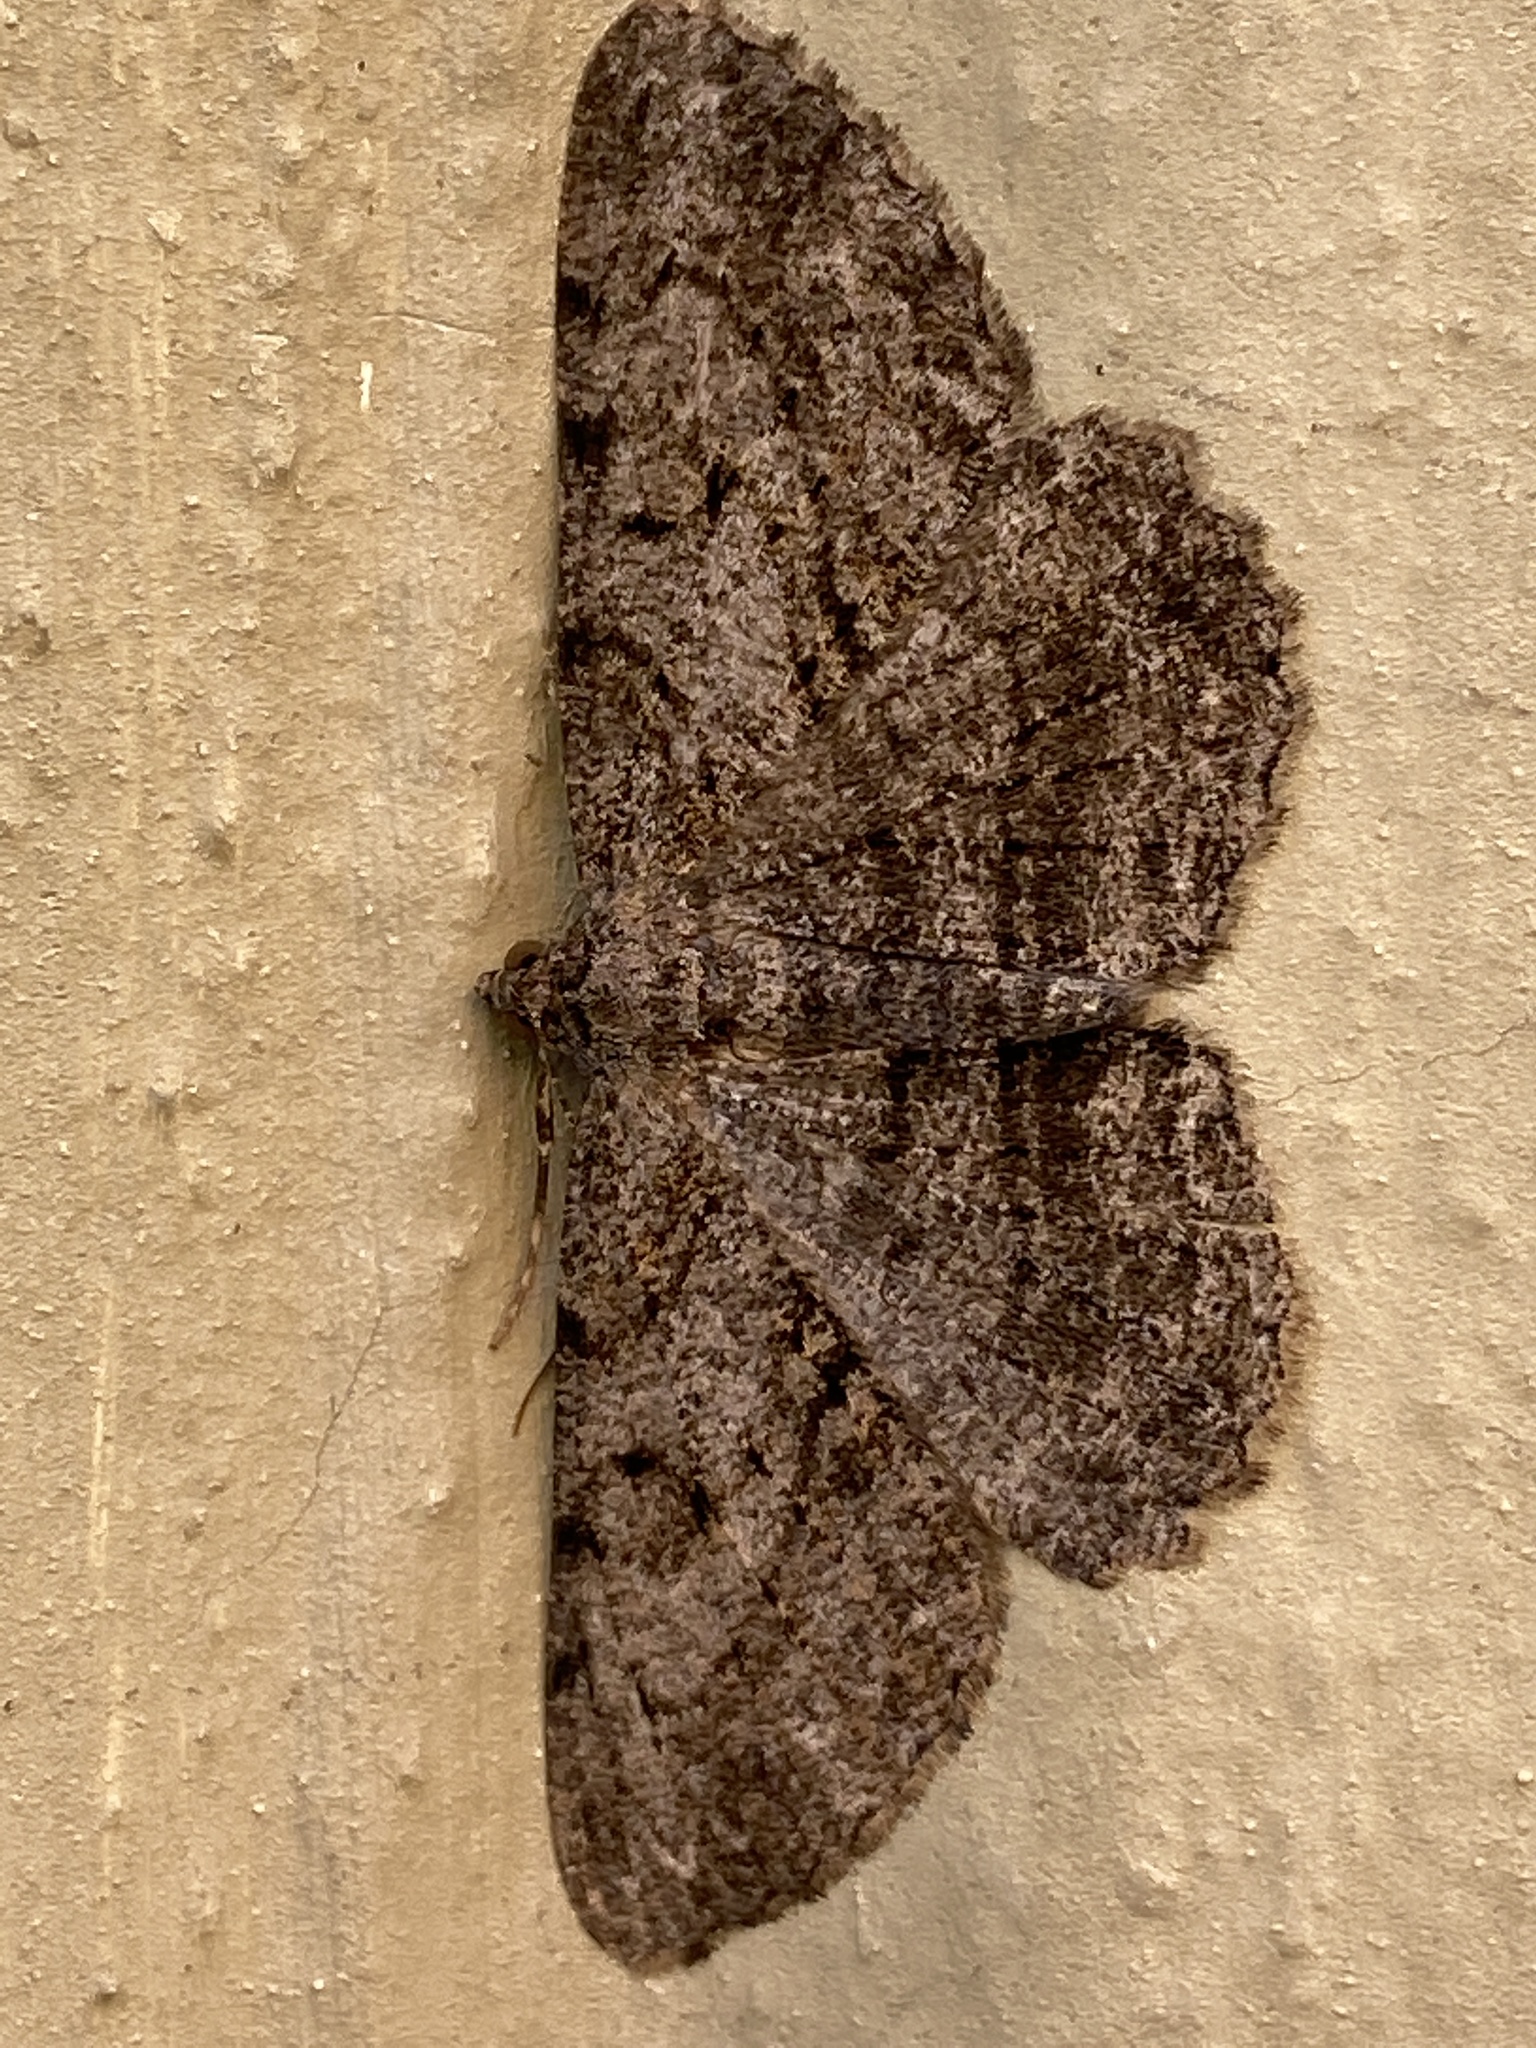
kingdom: Animalia
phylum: Arthropoda
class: Insecta
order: Lepidoptera
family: Geometridae
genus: Peribatodes
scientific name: Peribatodes rhomboidaria
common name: Willow beauty
